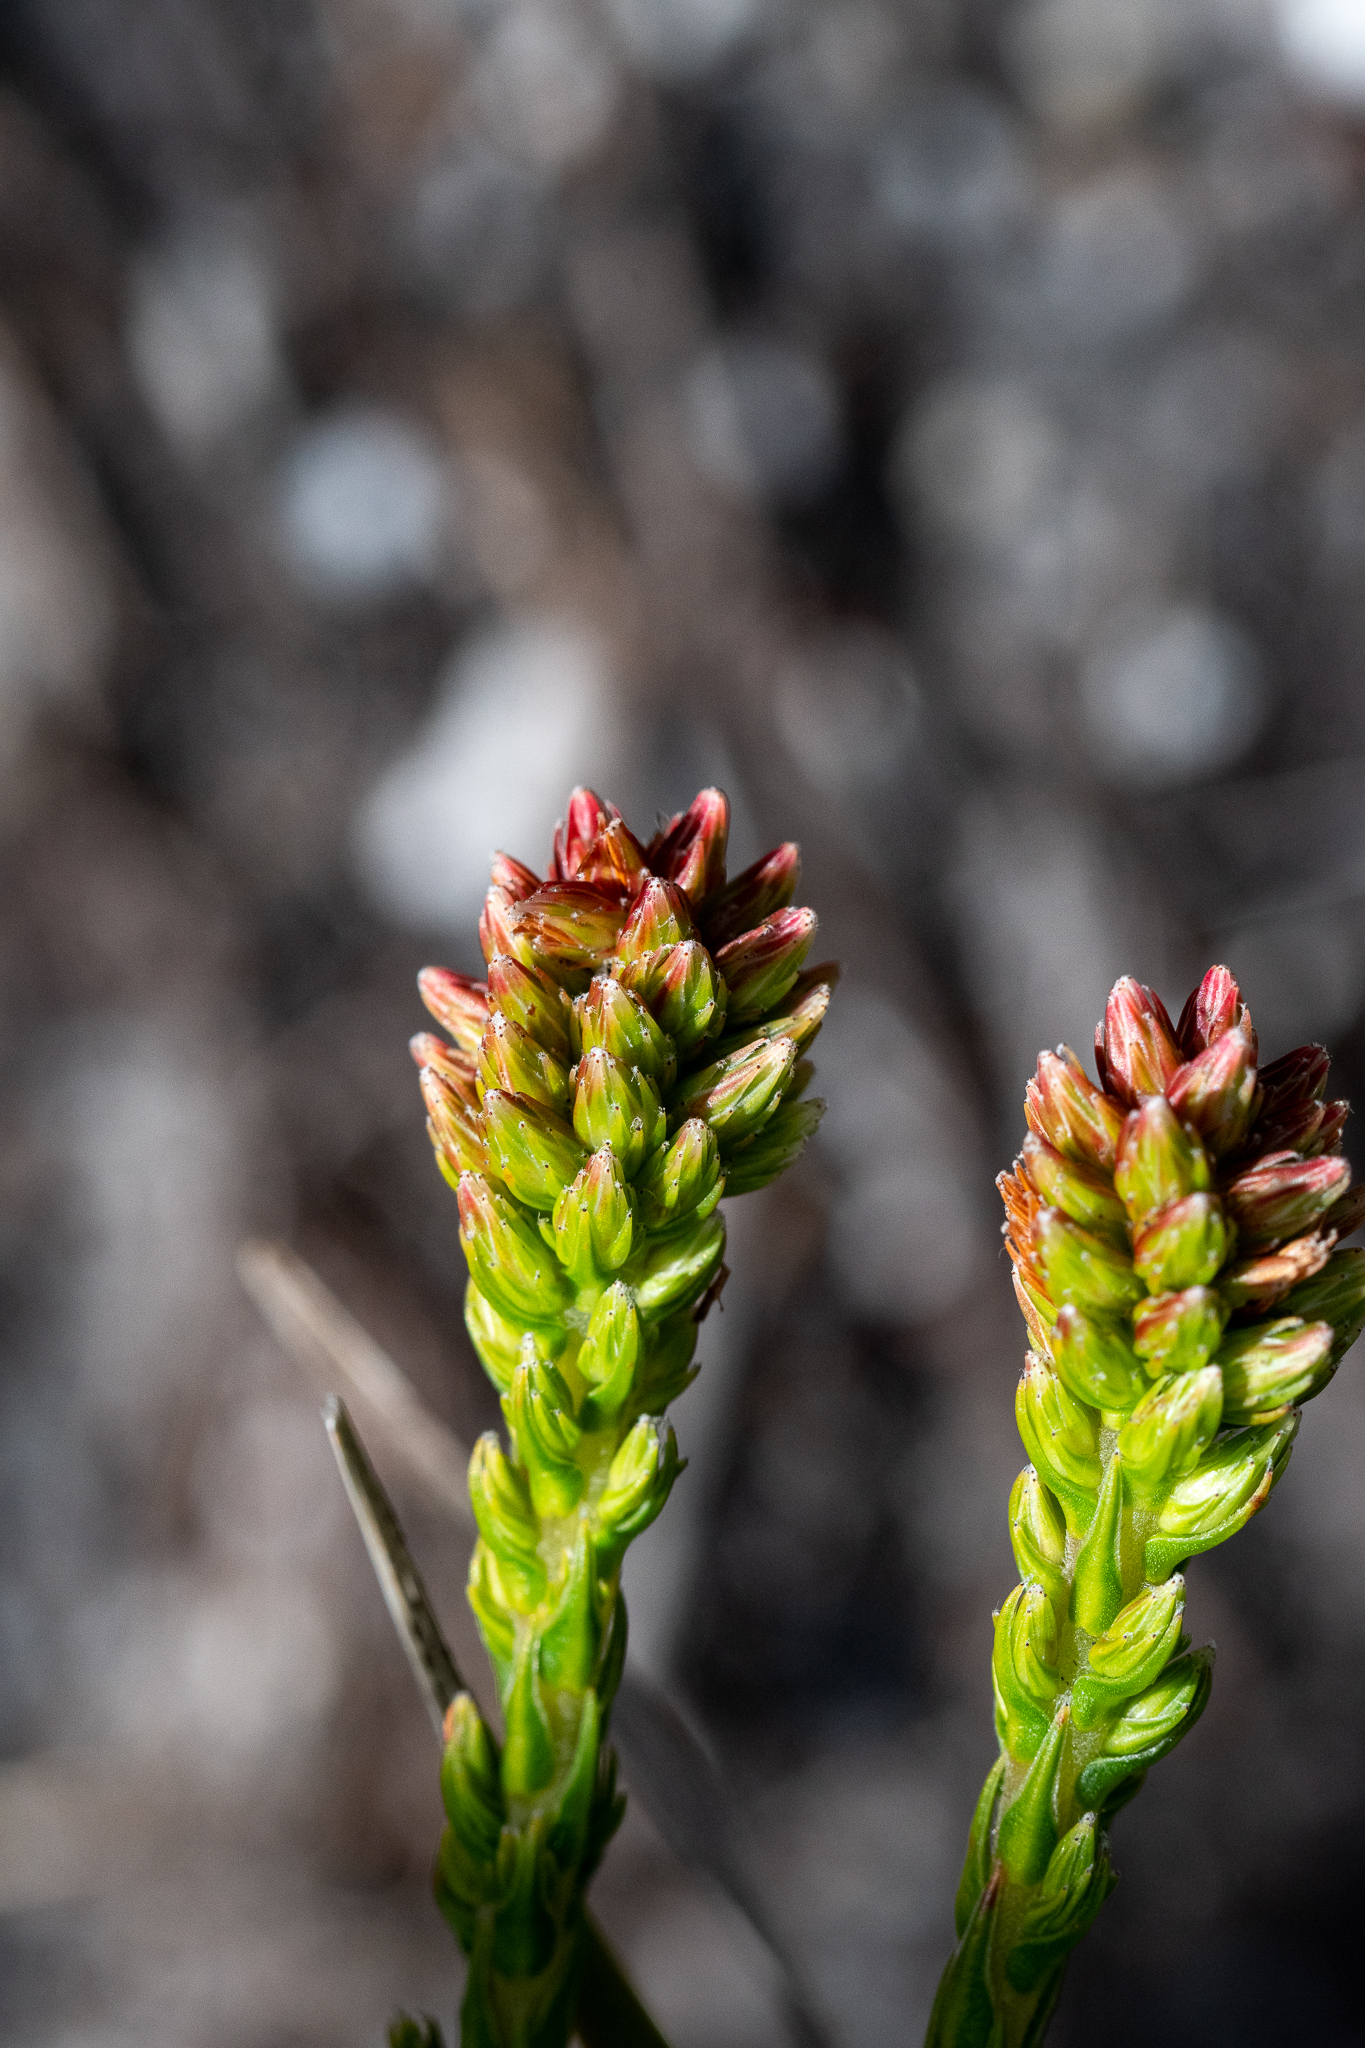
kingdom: Plantae
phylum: Tracheophyta
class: Magnoliopsida
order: Bruniales
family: Bruniaceae
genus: Brunia
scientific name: Brunia fragarioides
